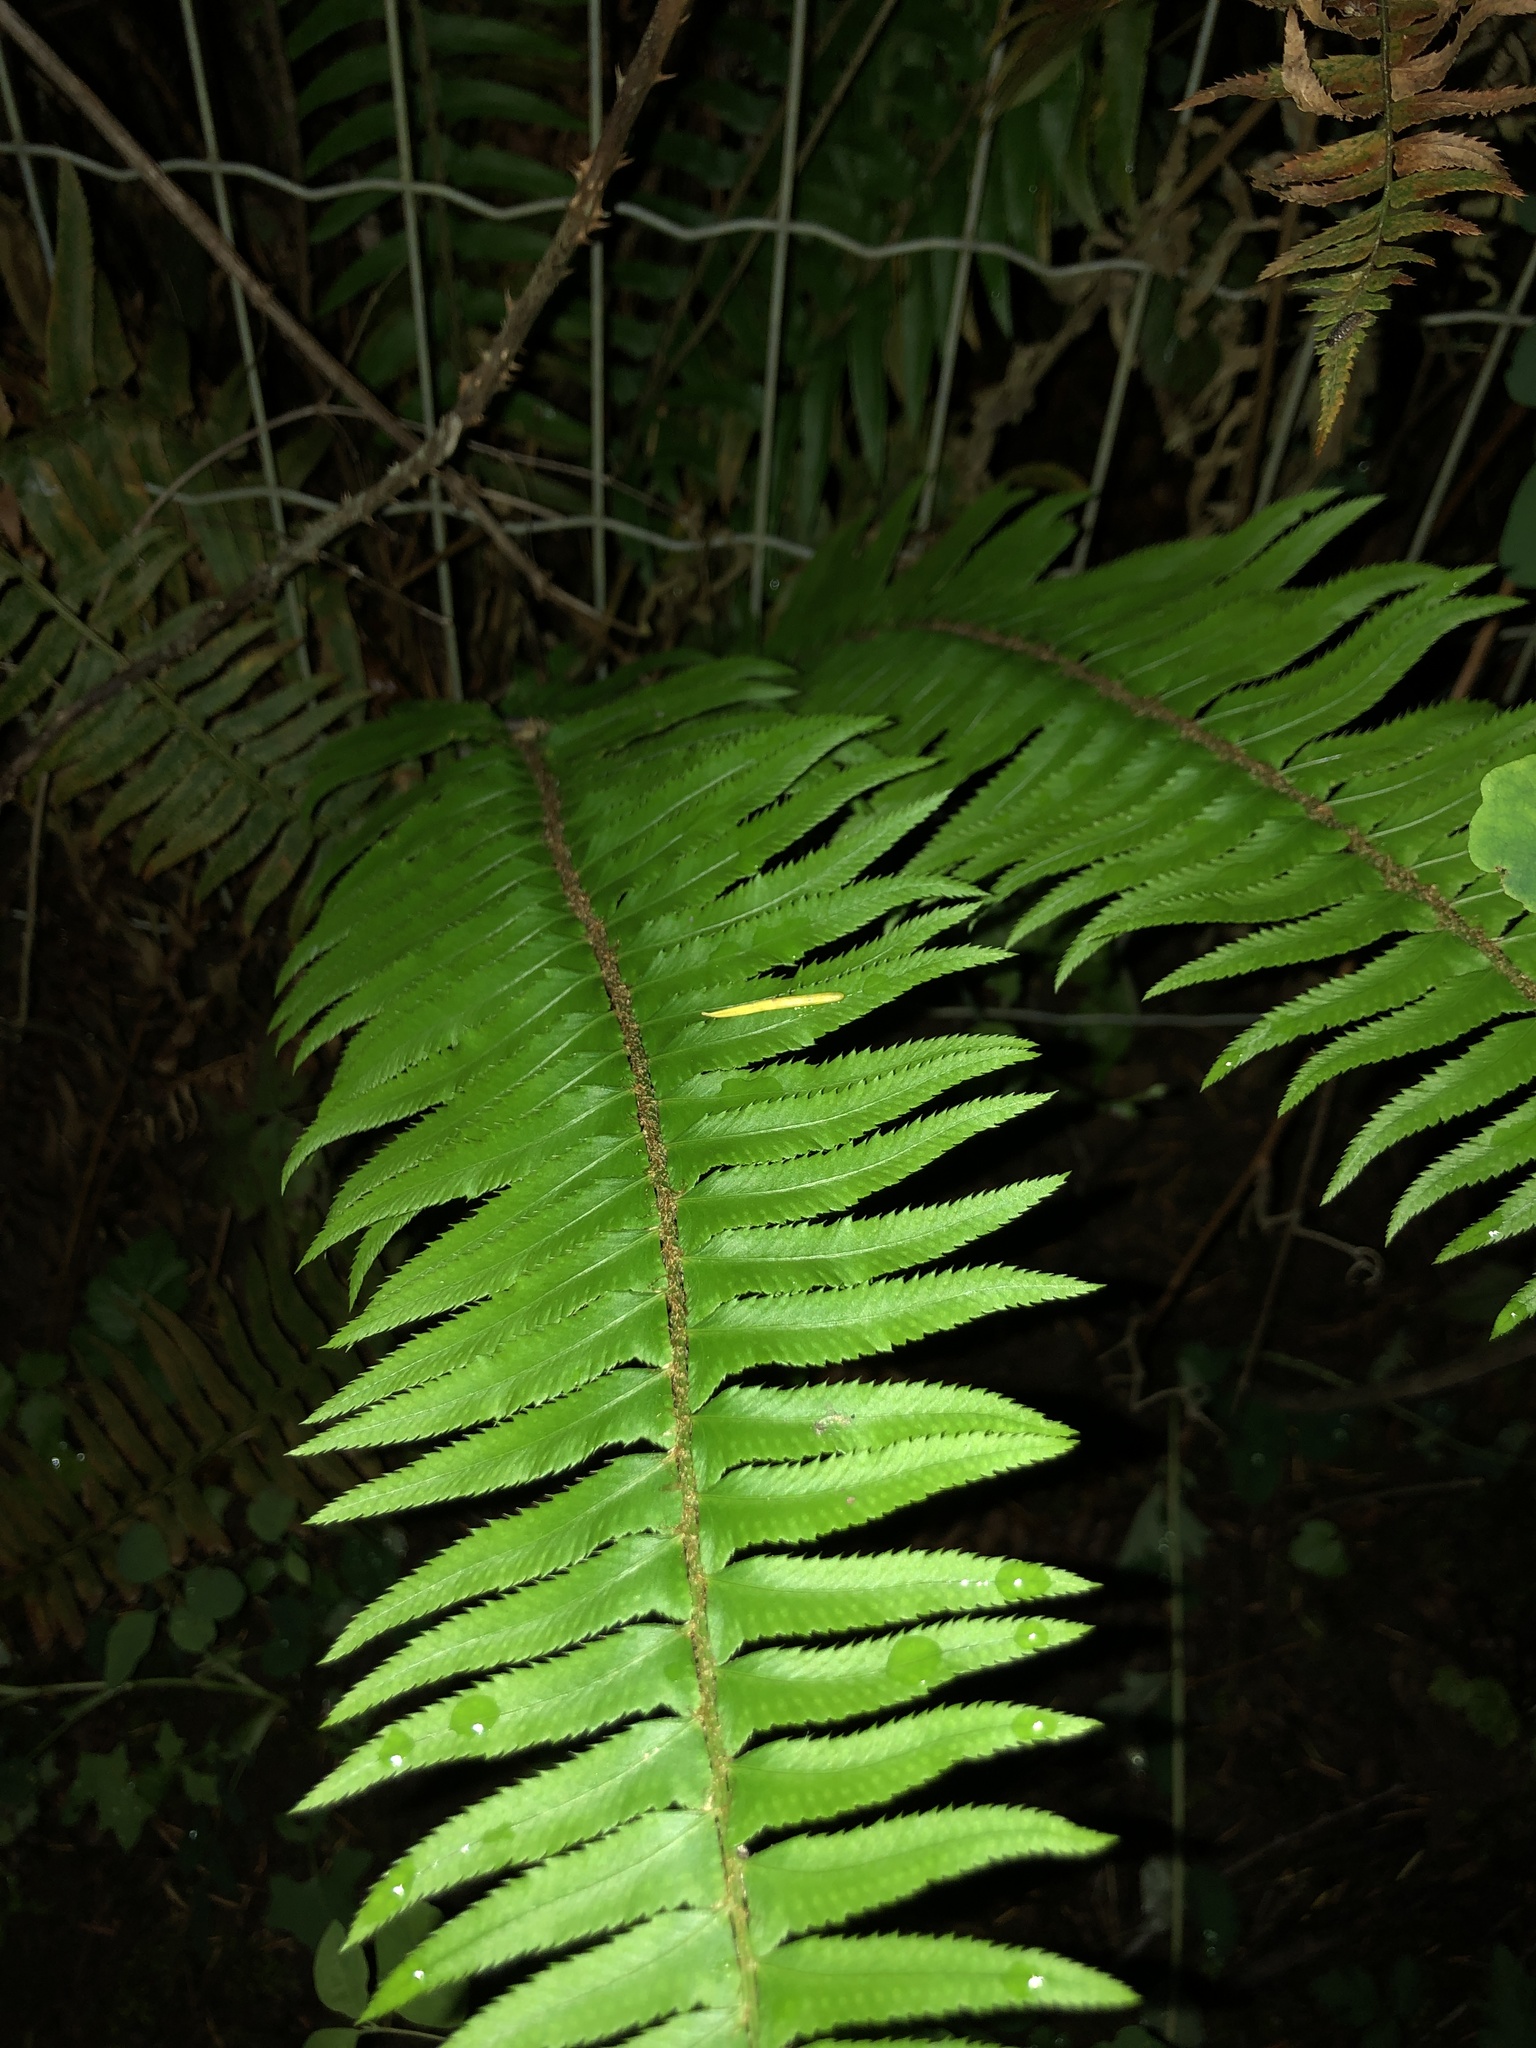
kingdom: Plantae
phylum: Tracheophyta
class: Polypodiopsida
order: Polypodiales
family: Dryopteridaceae
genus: Polystichum
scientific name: Polystichum munitum
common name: Western sword-fern
